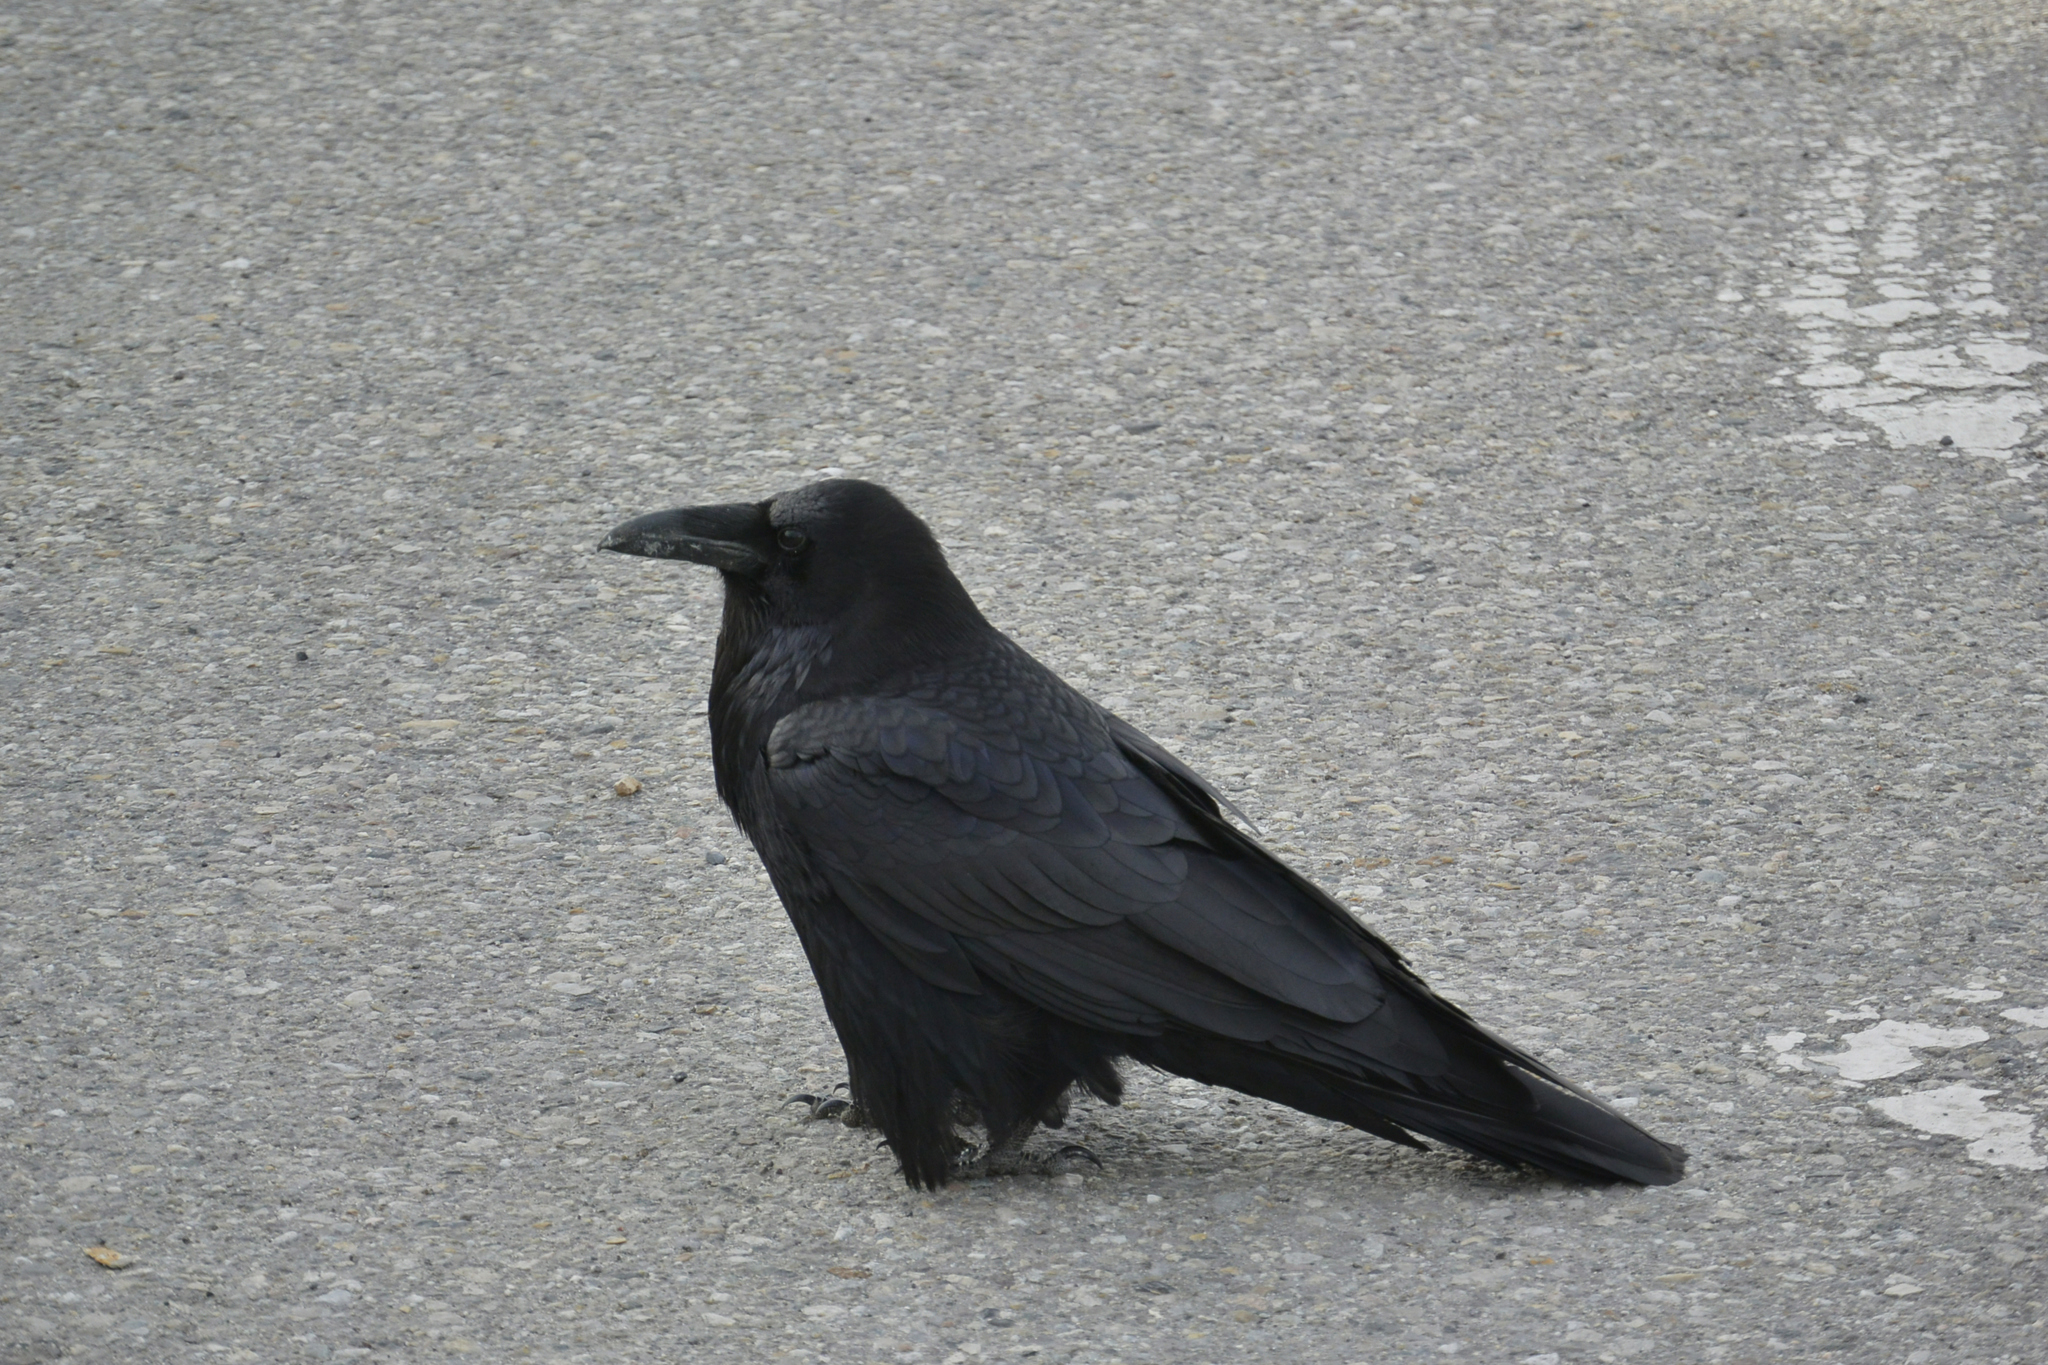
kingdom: Animalia
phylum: Chordata
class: Aves
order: Passeriformes
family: Corvidae
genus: Corvus
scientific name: Corvus corax
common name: Common raven
